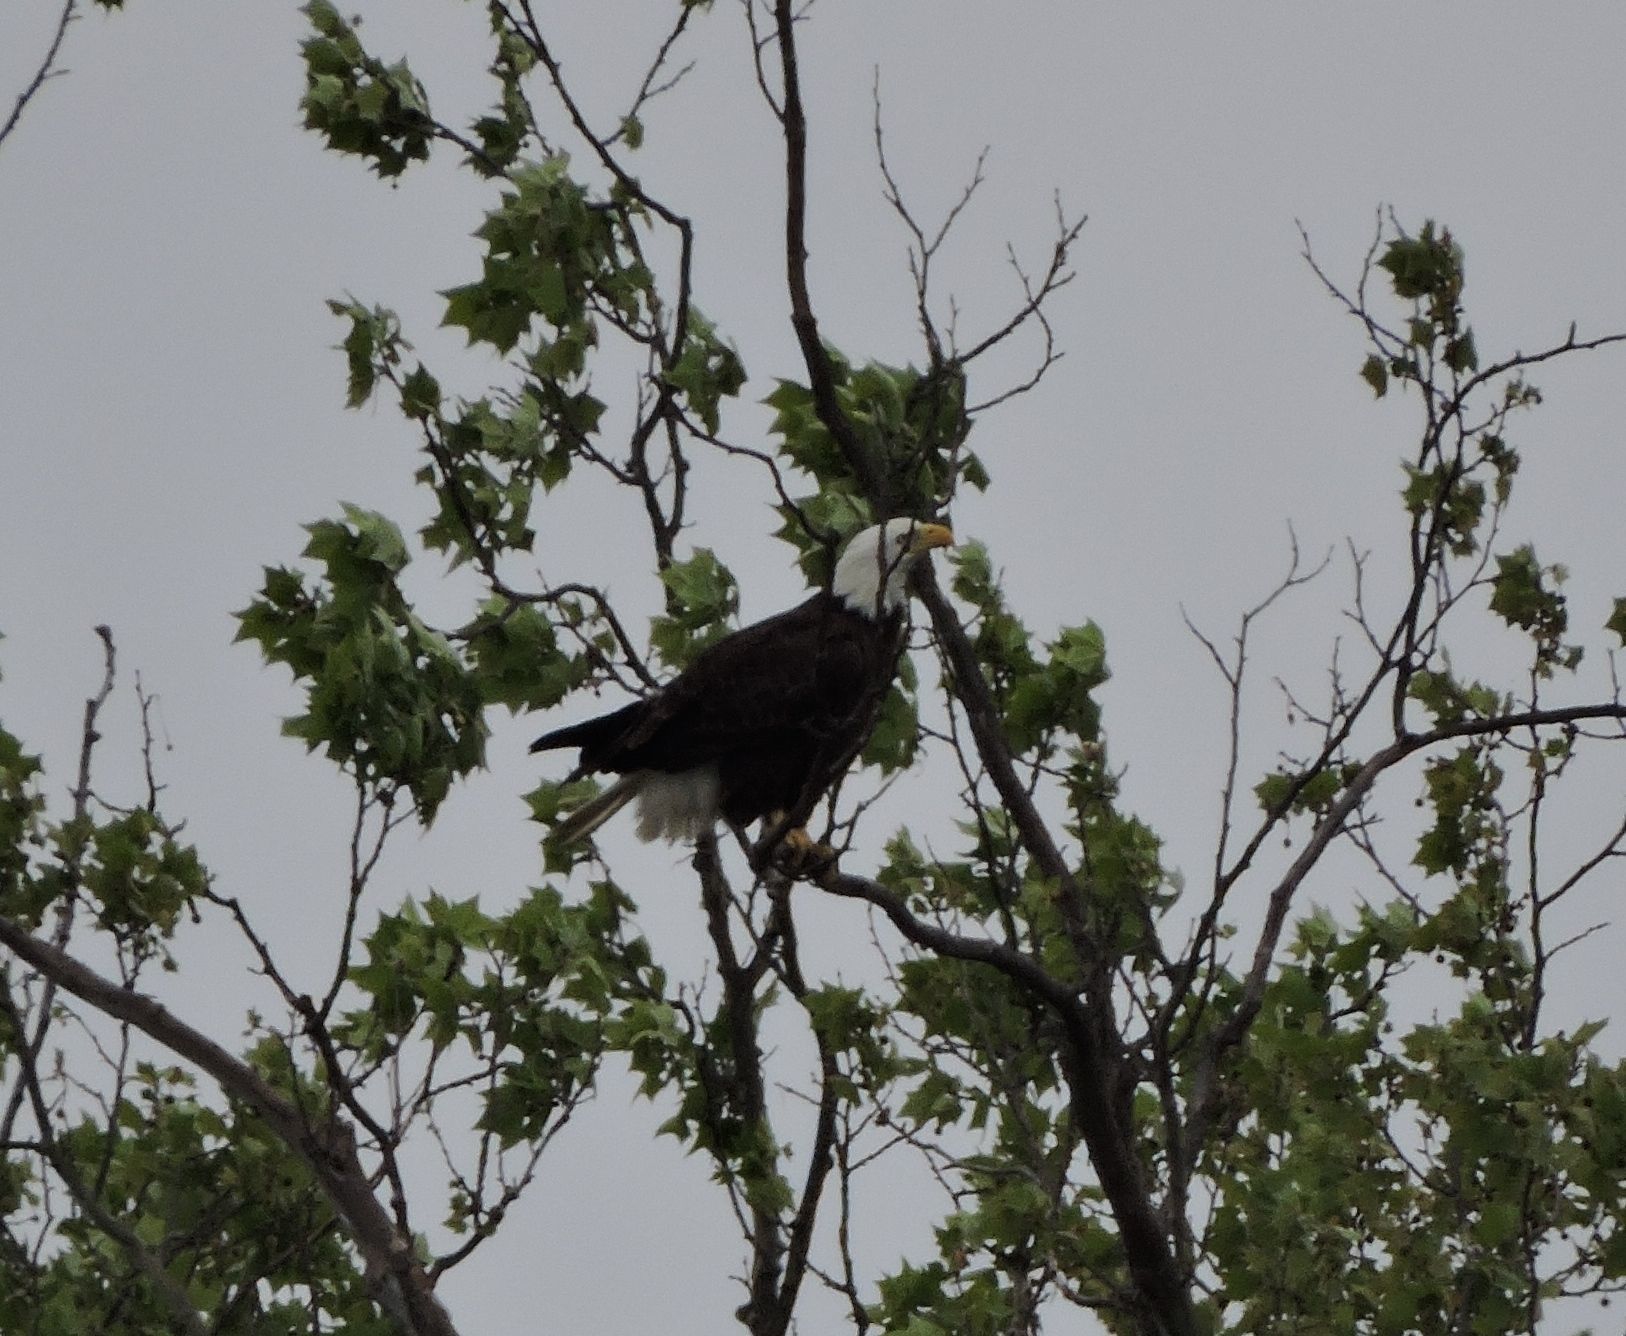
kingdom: Animalia
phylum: Chordata
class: Aves
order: Accipitriformes
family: Accipitridae
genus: Haliaeetus
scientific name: Haliaeetus leucocephalus
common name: Bald eagle
